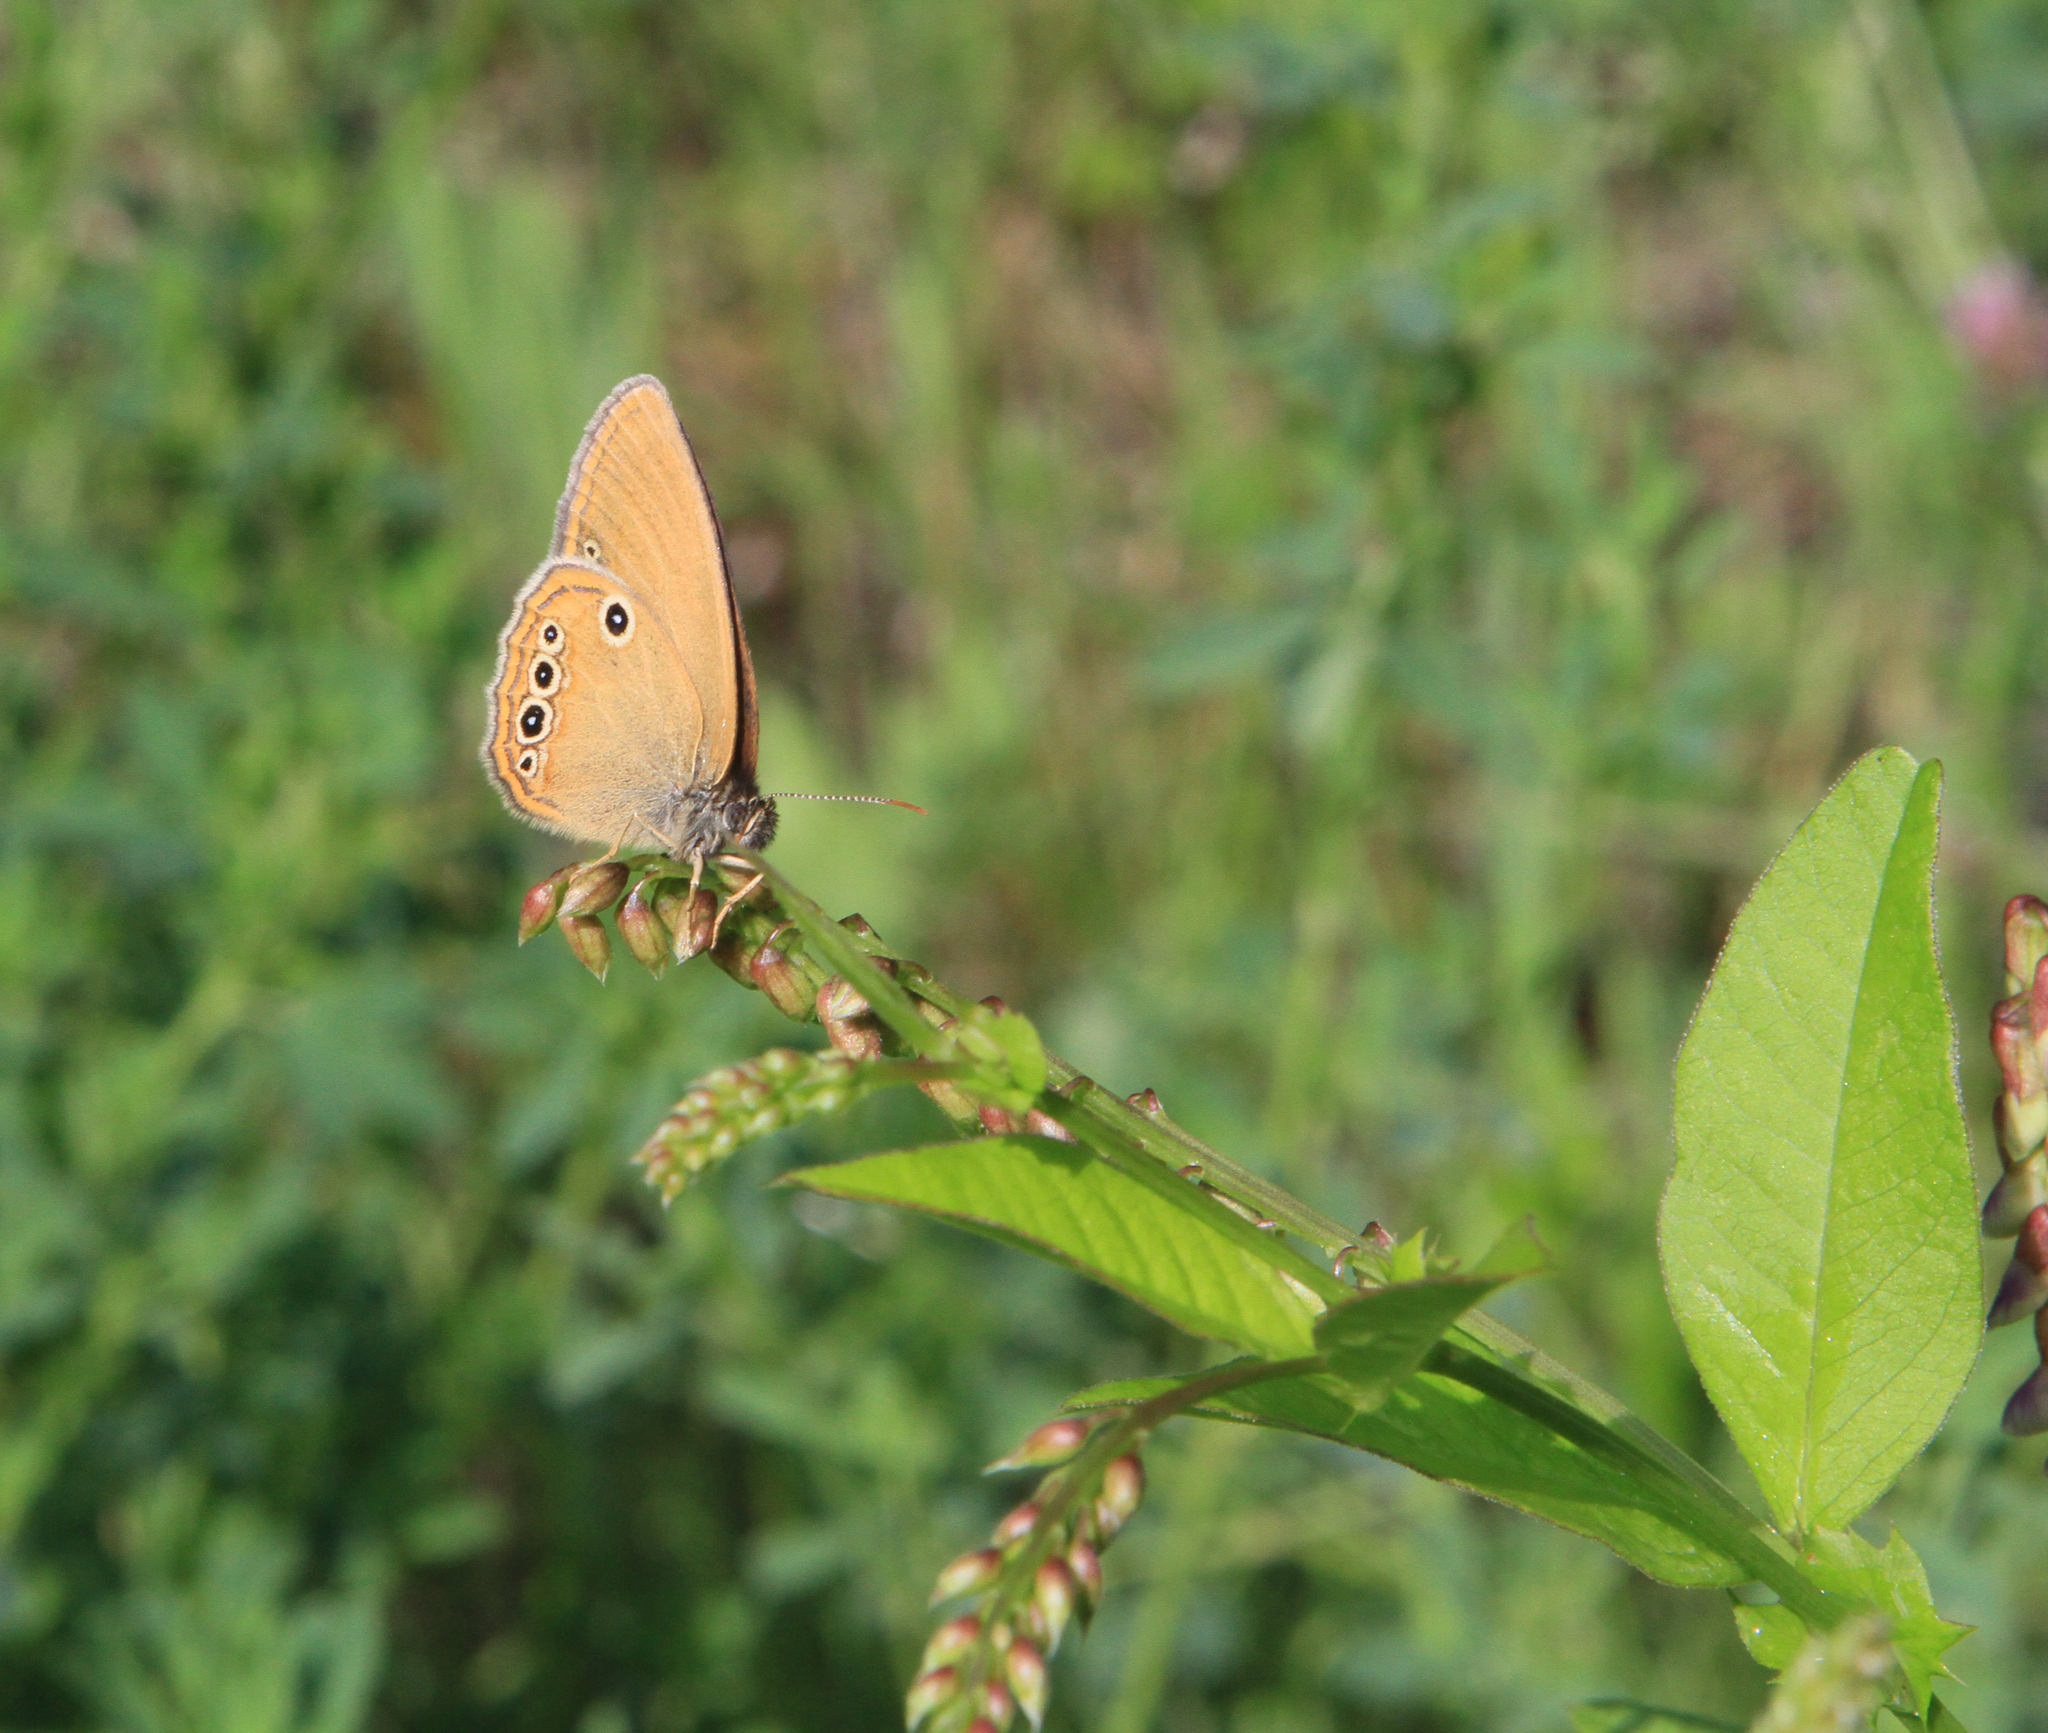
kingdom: Plantae
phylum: Tracheophyta
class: Magnoliopsida
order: Fabales
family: Fabaceae
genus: Vicia
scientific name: Vicia unijuga
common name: Two-leaf vetch
